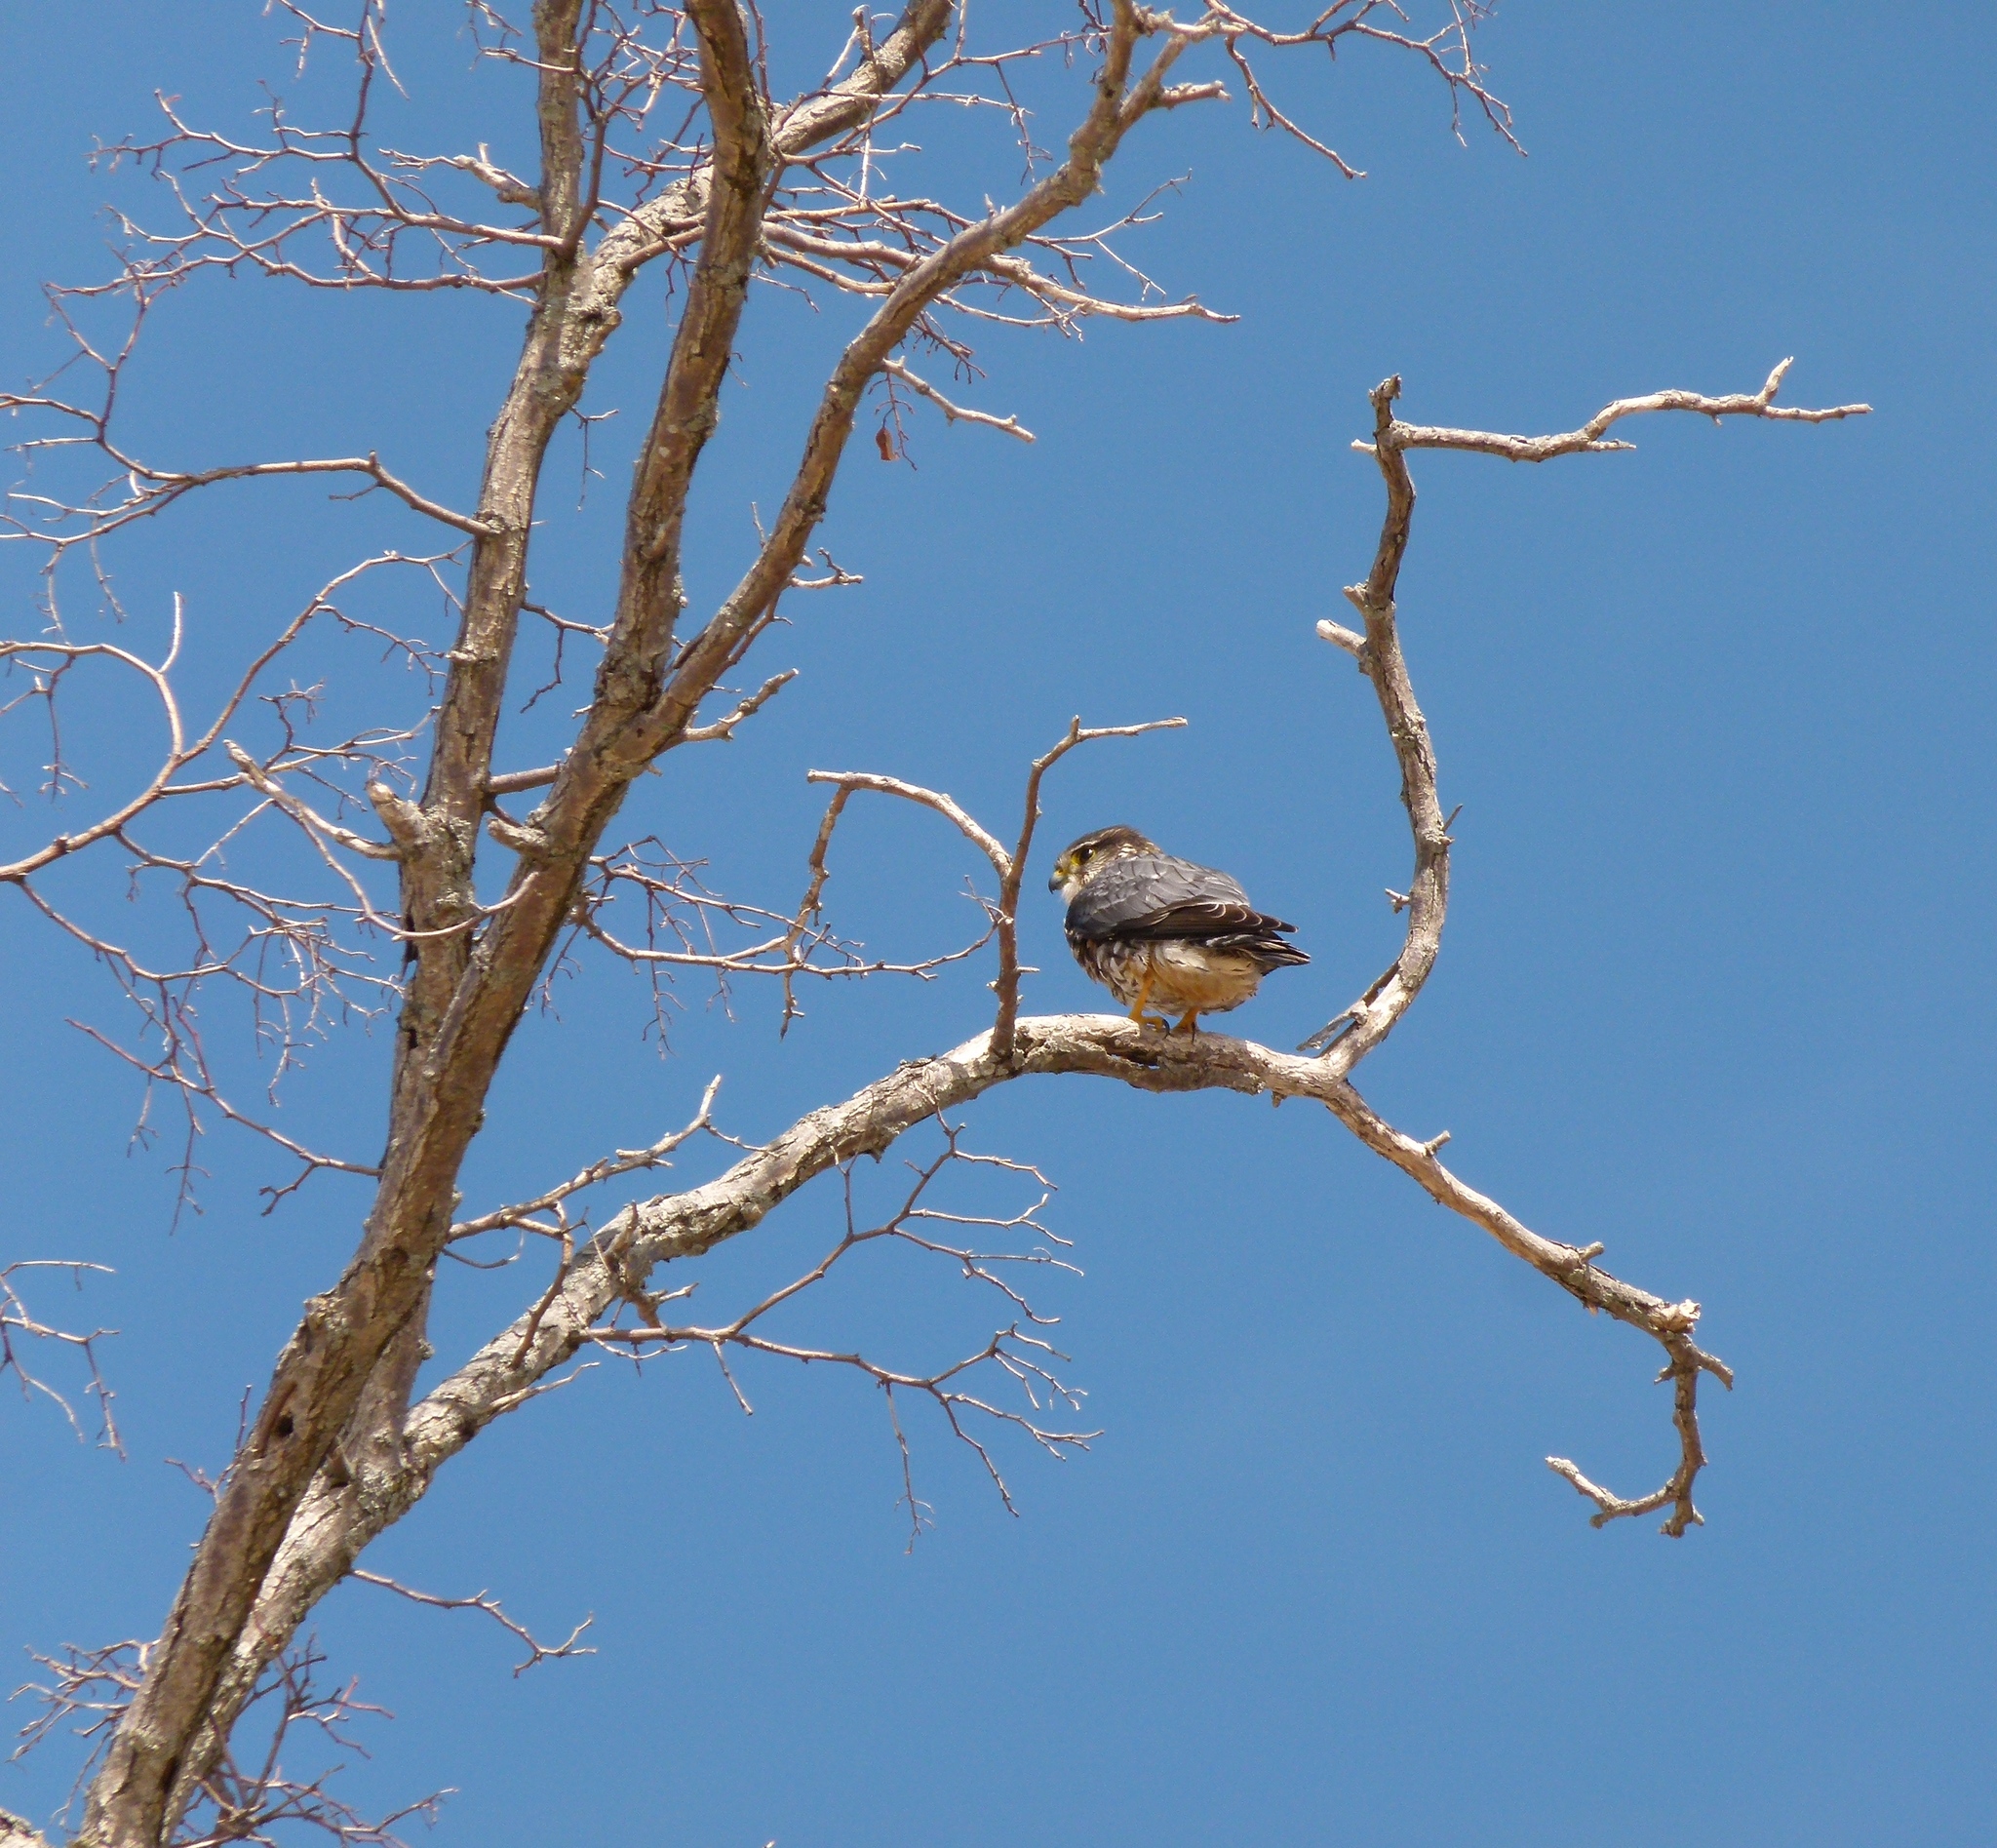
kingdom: Animalia
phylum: Chordata
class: Aves
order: Falconiformes
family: Falconidae
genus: Falco
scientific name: Falco columbarius
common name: Merlin
